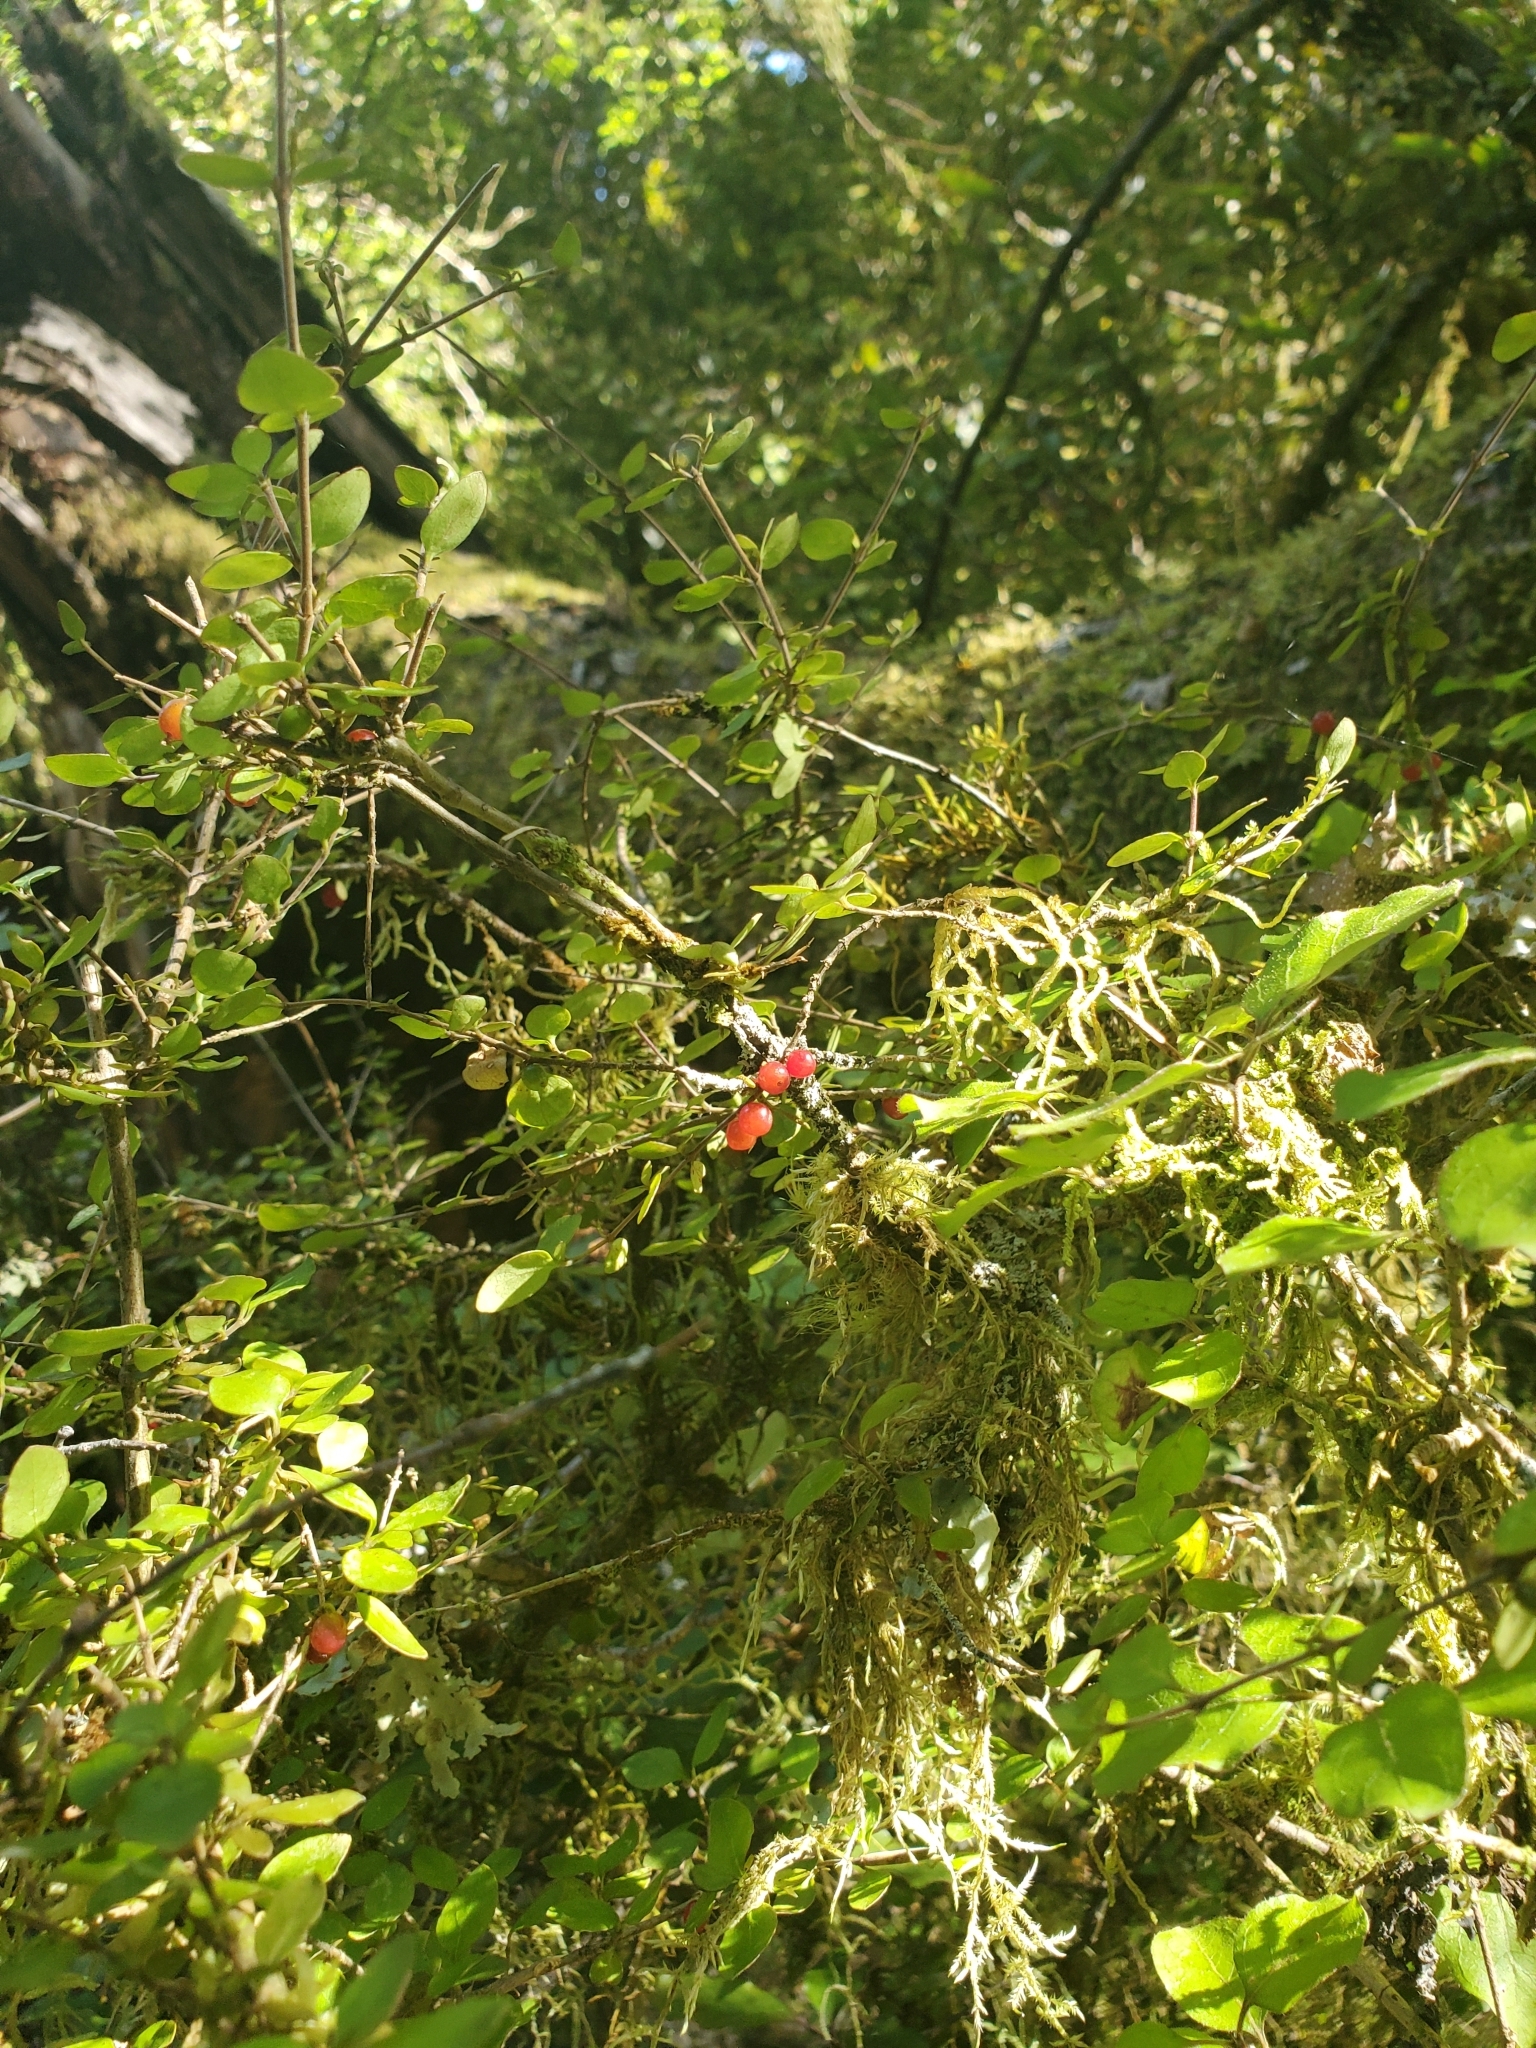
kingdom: Plantae
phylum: Tracheophyta
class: Magnoliopsida
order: Gentianales
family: Rubiaceae
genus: Coprosma
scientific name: Coprosma rotundifolia
